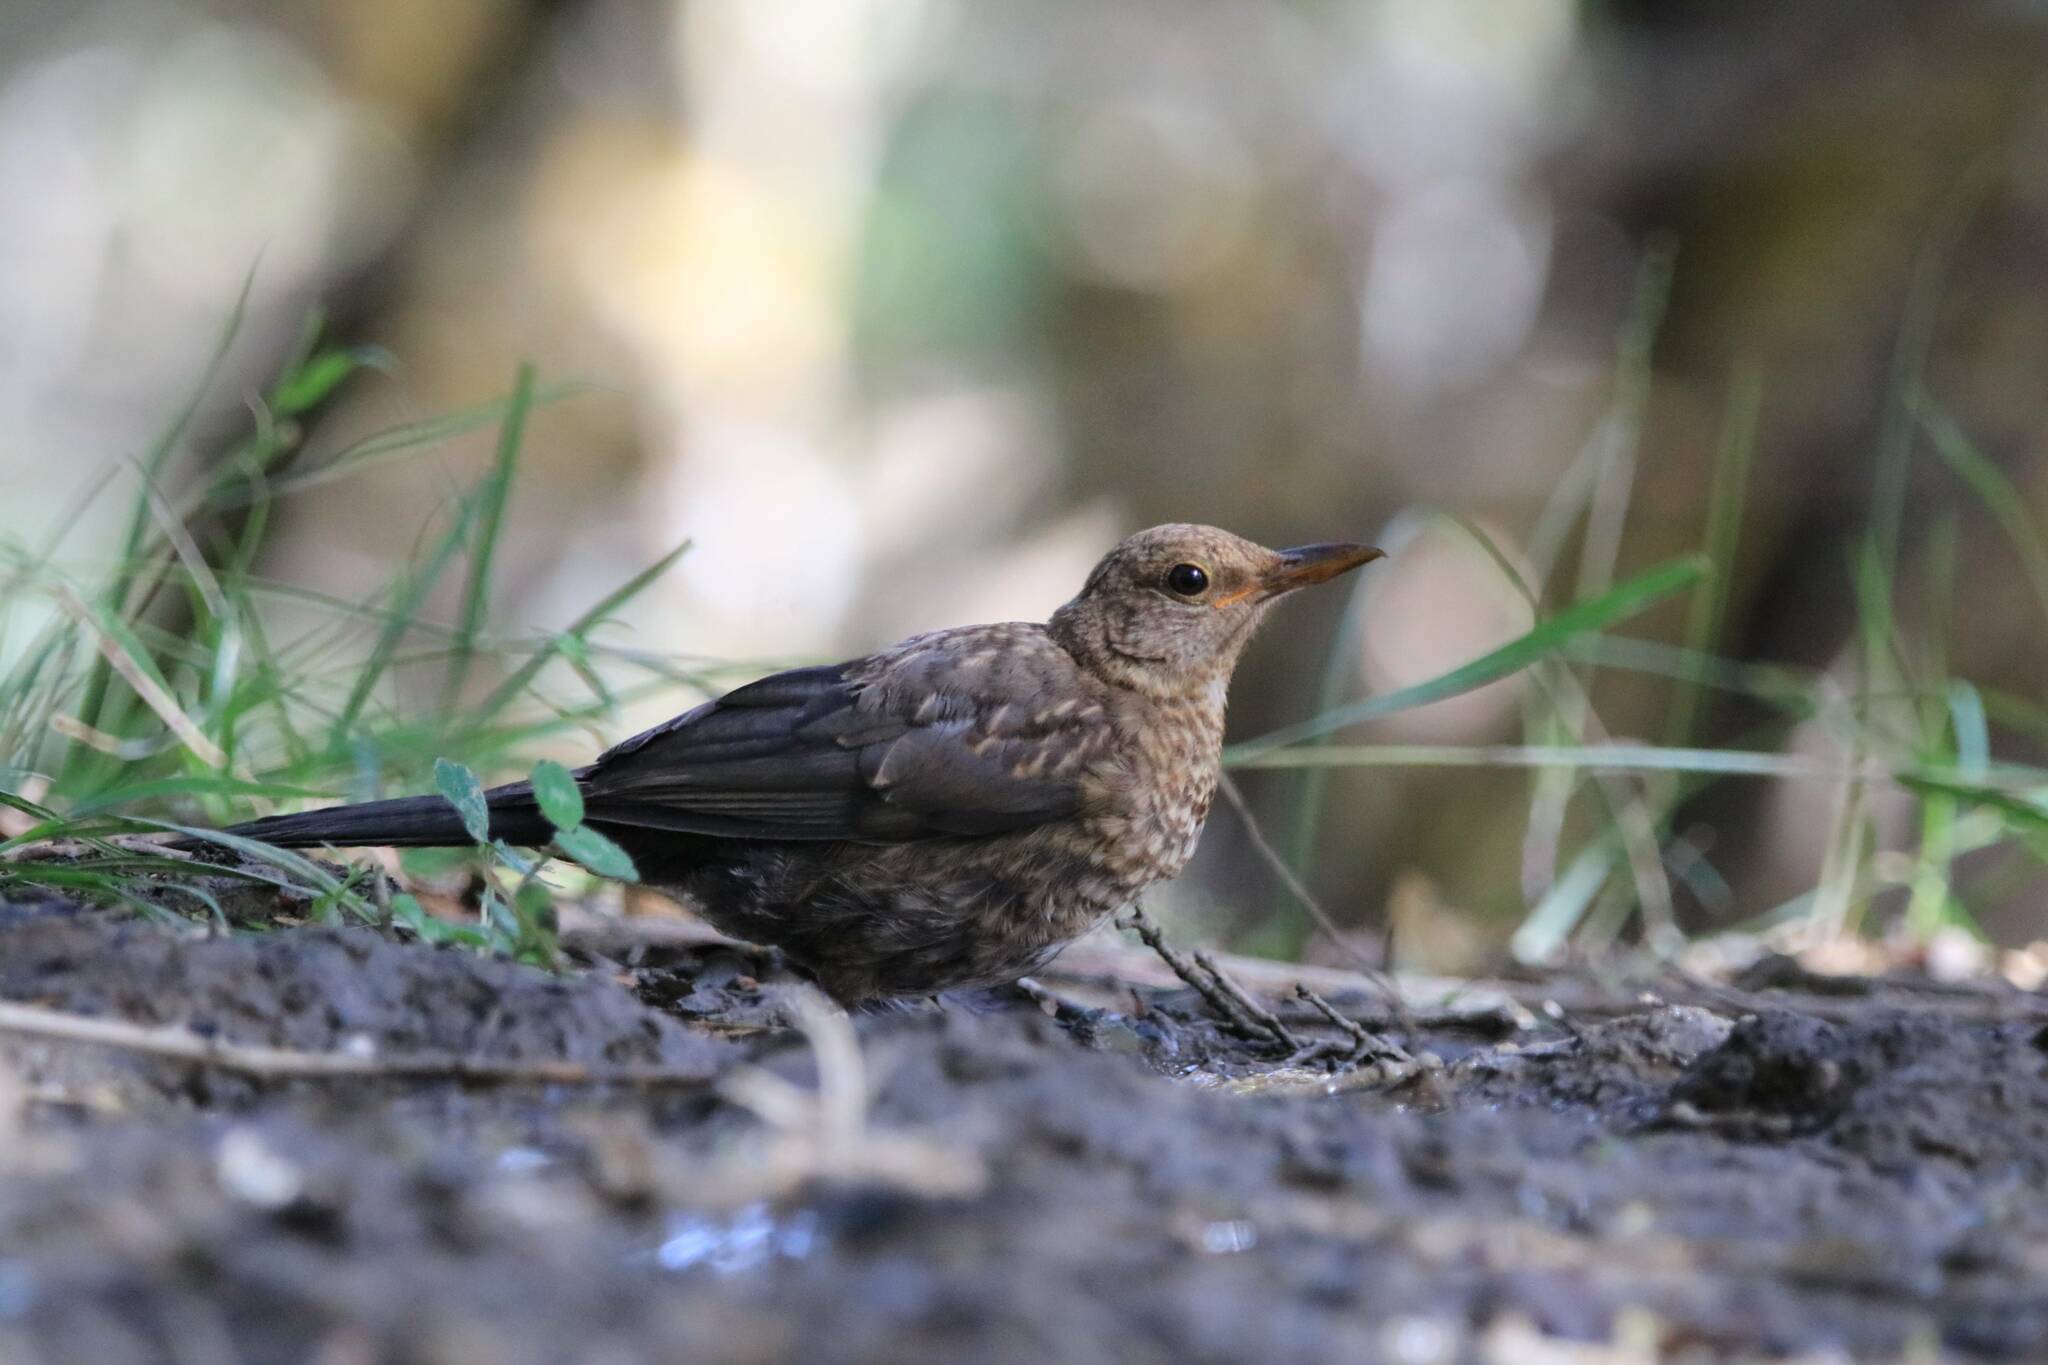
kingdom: Animalia
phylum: Chordata
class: Aves
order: Passeriformes
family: Turdidae
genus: Turdus
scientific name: Turdus merula
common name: Common blackbird
